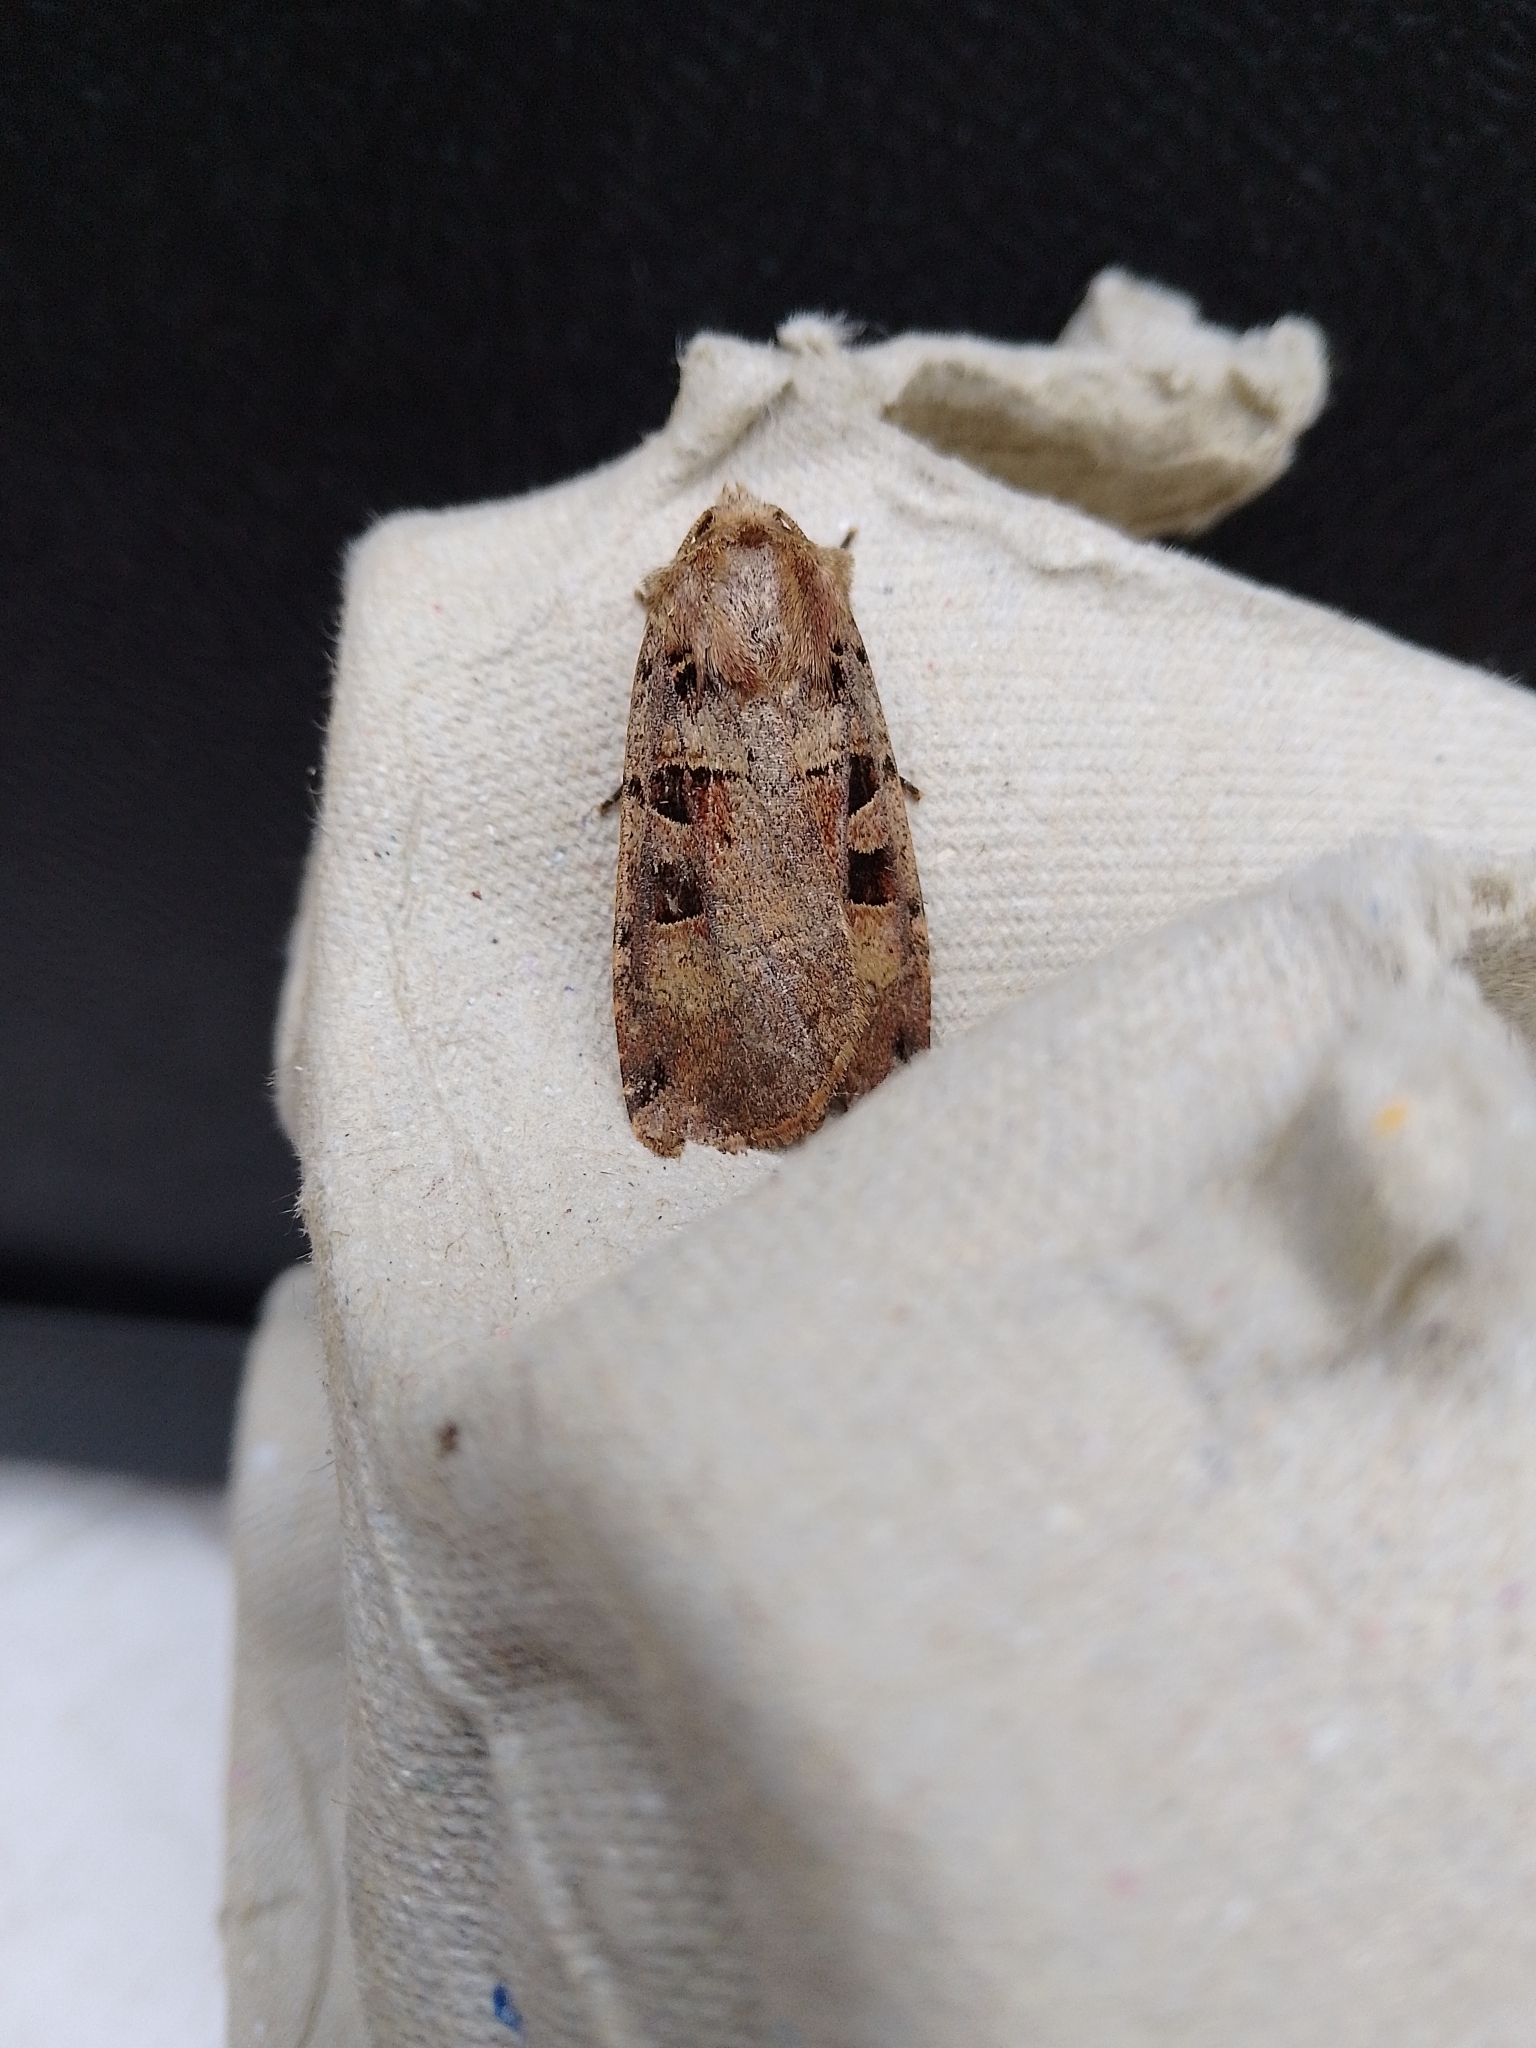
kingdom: Animalia
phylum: Arthropoda
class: Insecta
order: Lepidoptera
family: Noctuidae
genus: Xestia
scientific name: Xestia triangulum
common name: Double square-spot
